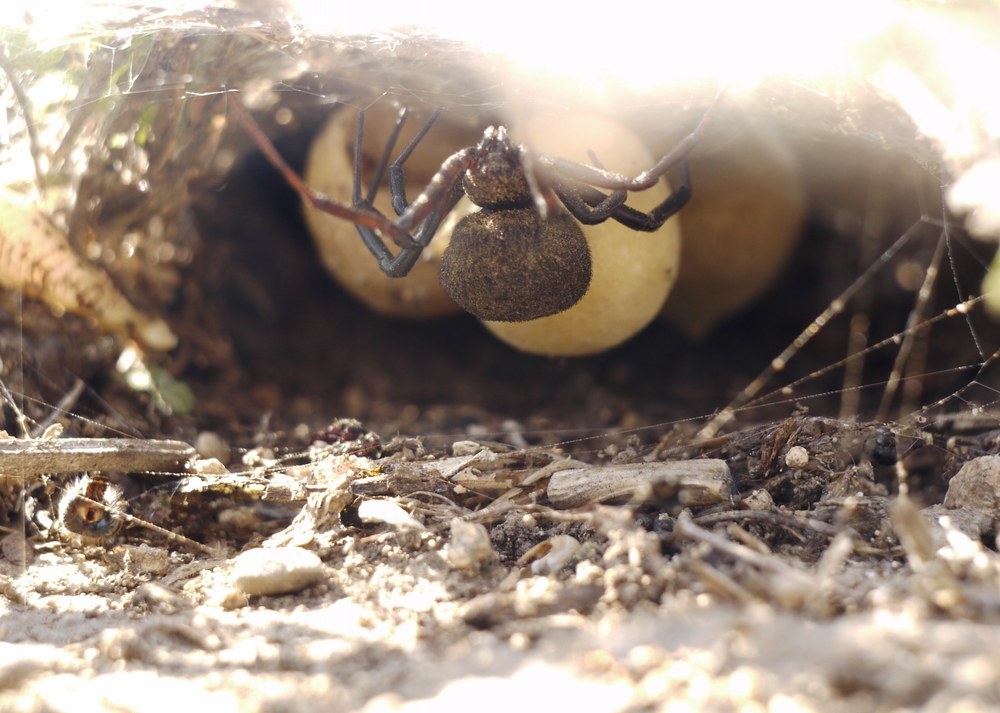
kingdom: Animalia
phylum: Arthropoda
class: Arachnida
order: Araneae
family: Theridiidae
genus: Latrodectus
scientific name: Latrodectus tredecimguttatus
